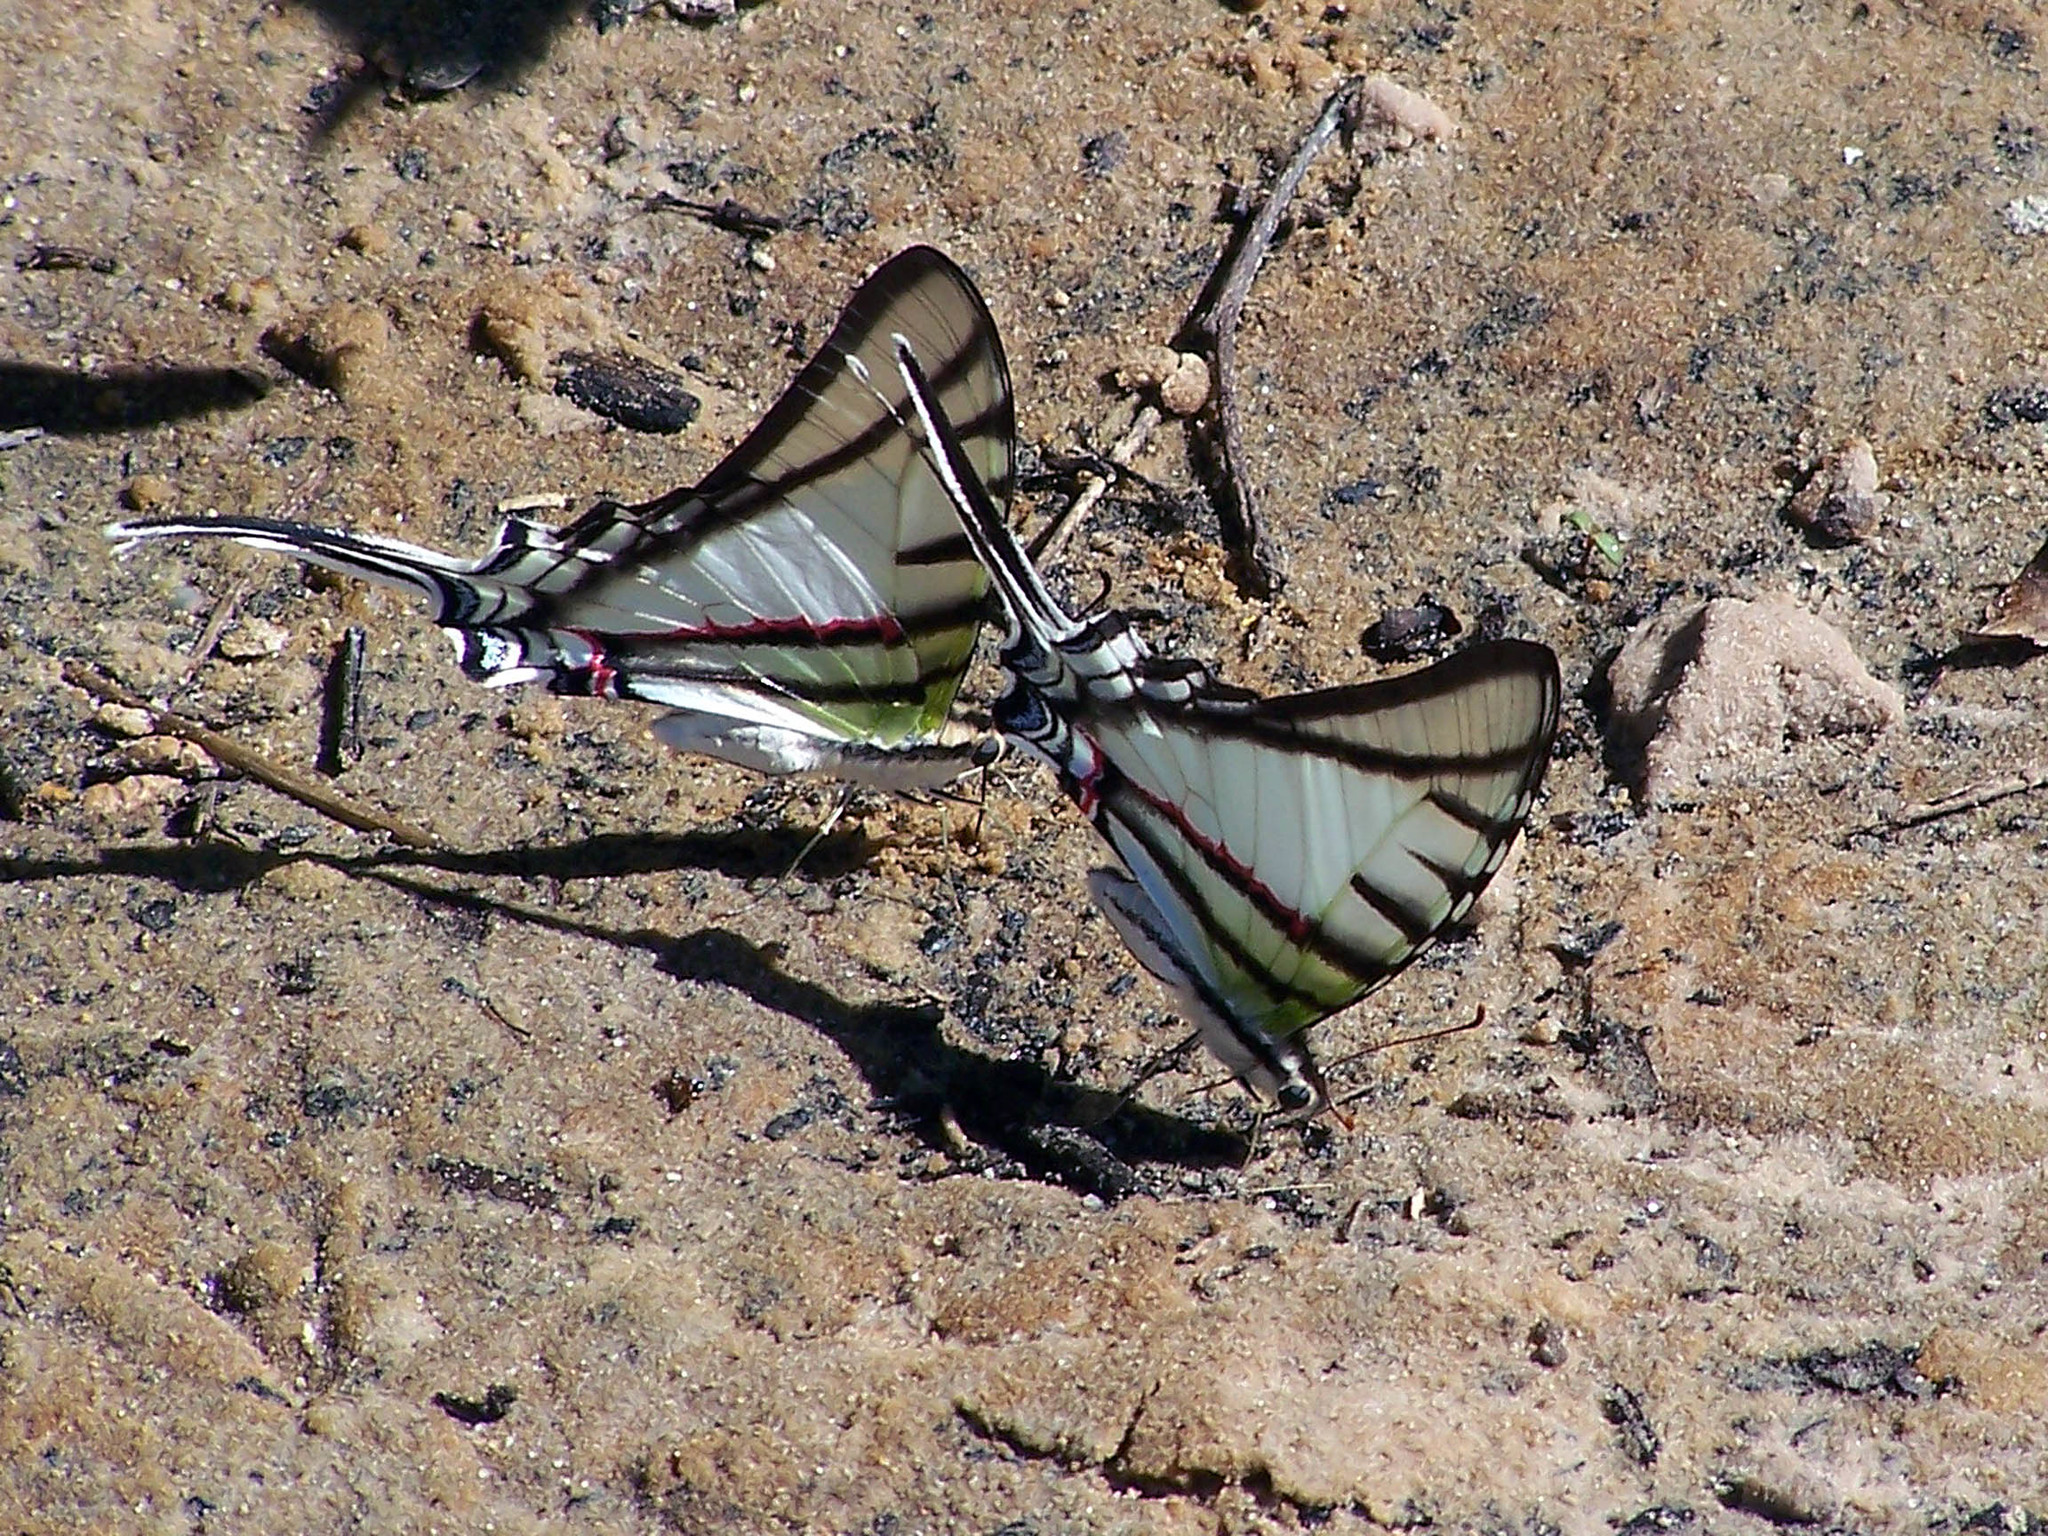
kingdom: Animalia
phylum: Arthropoda
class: Insecta
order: Lepidoptera
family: Papilionidae
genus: Protesilaus
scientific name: Protesilaus protesilaus
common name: Great kite-swallowtail
